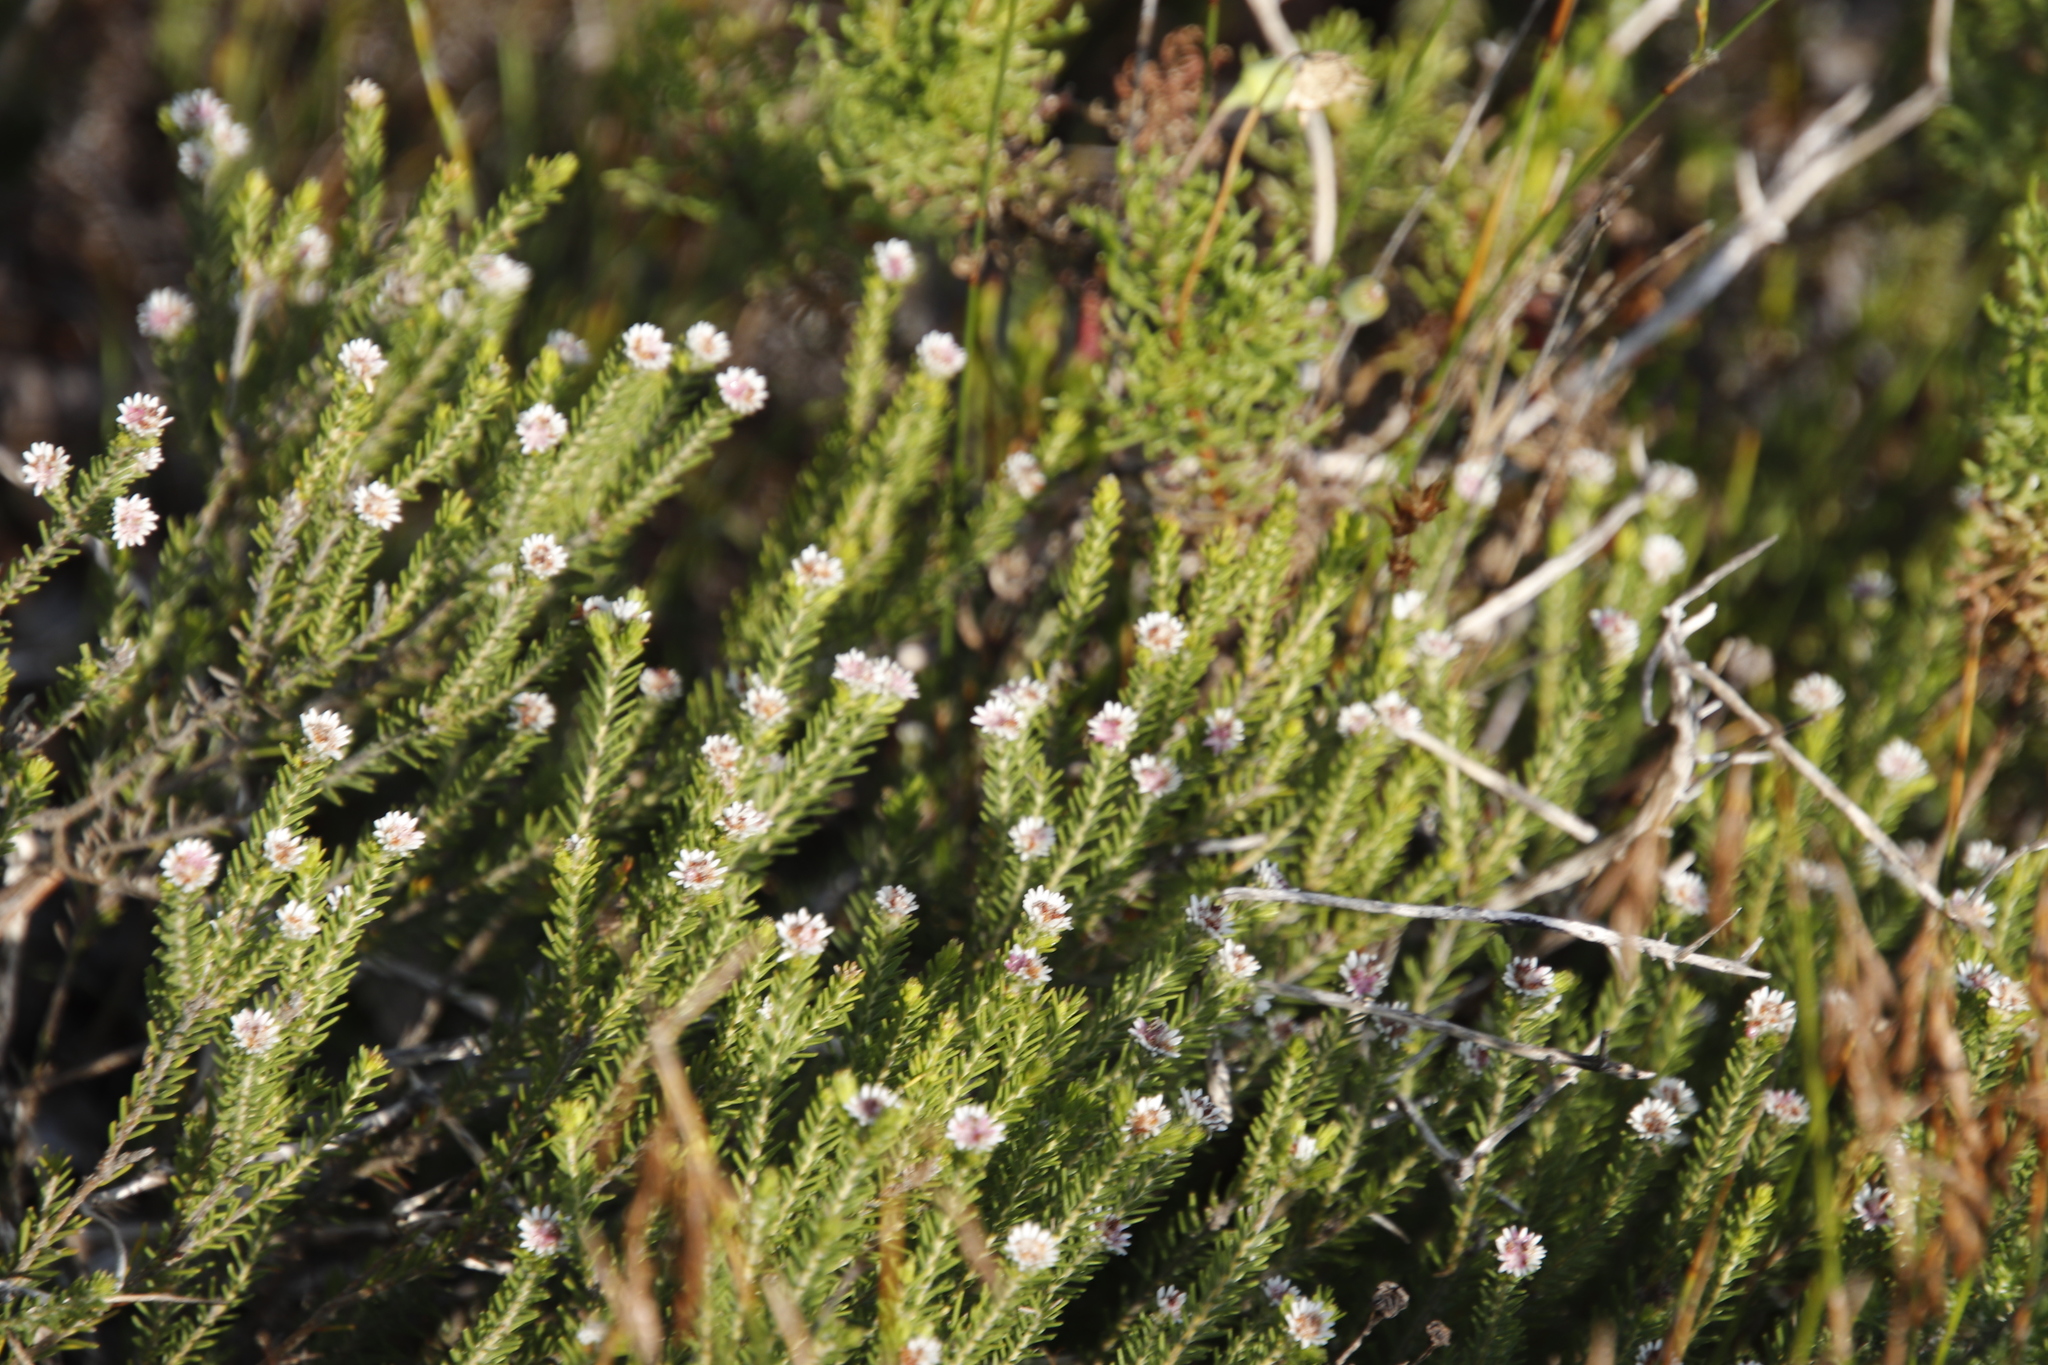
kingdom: Plantae
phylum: Tracheophyta
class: Magnoliopsida
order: Bruniales
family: Bruniaceae
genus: Staavia
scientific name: Staavia radiata
